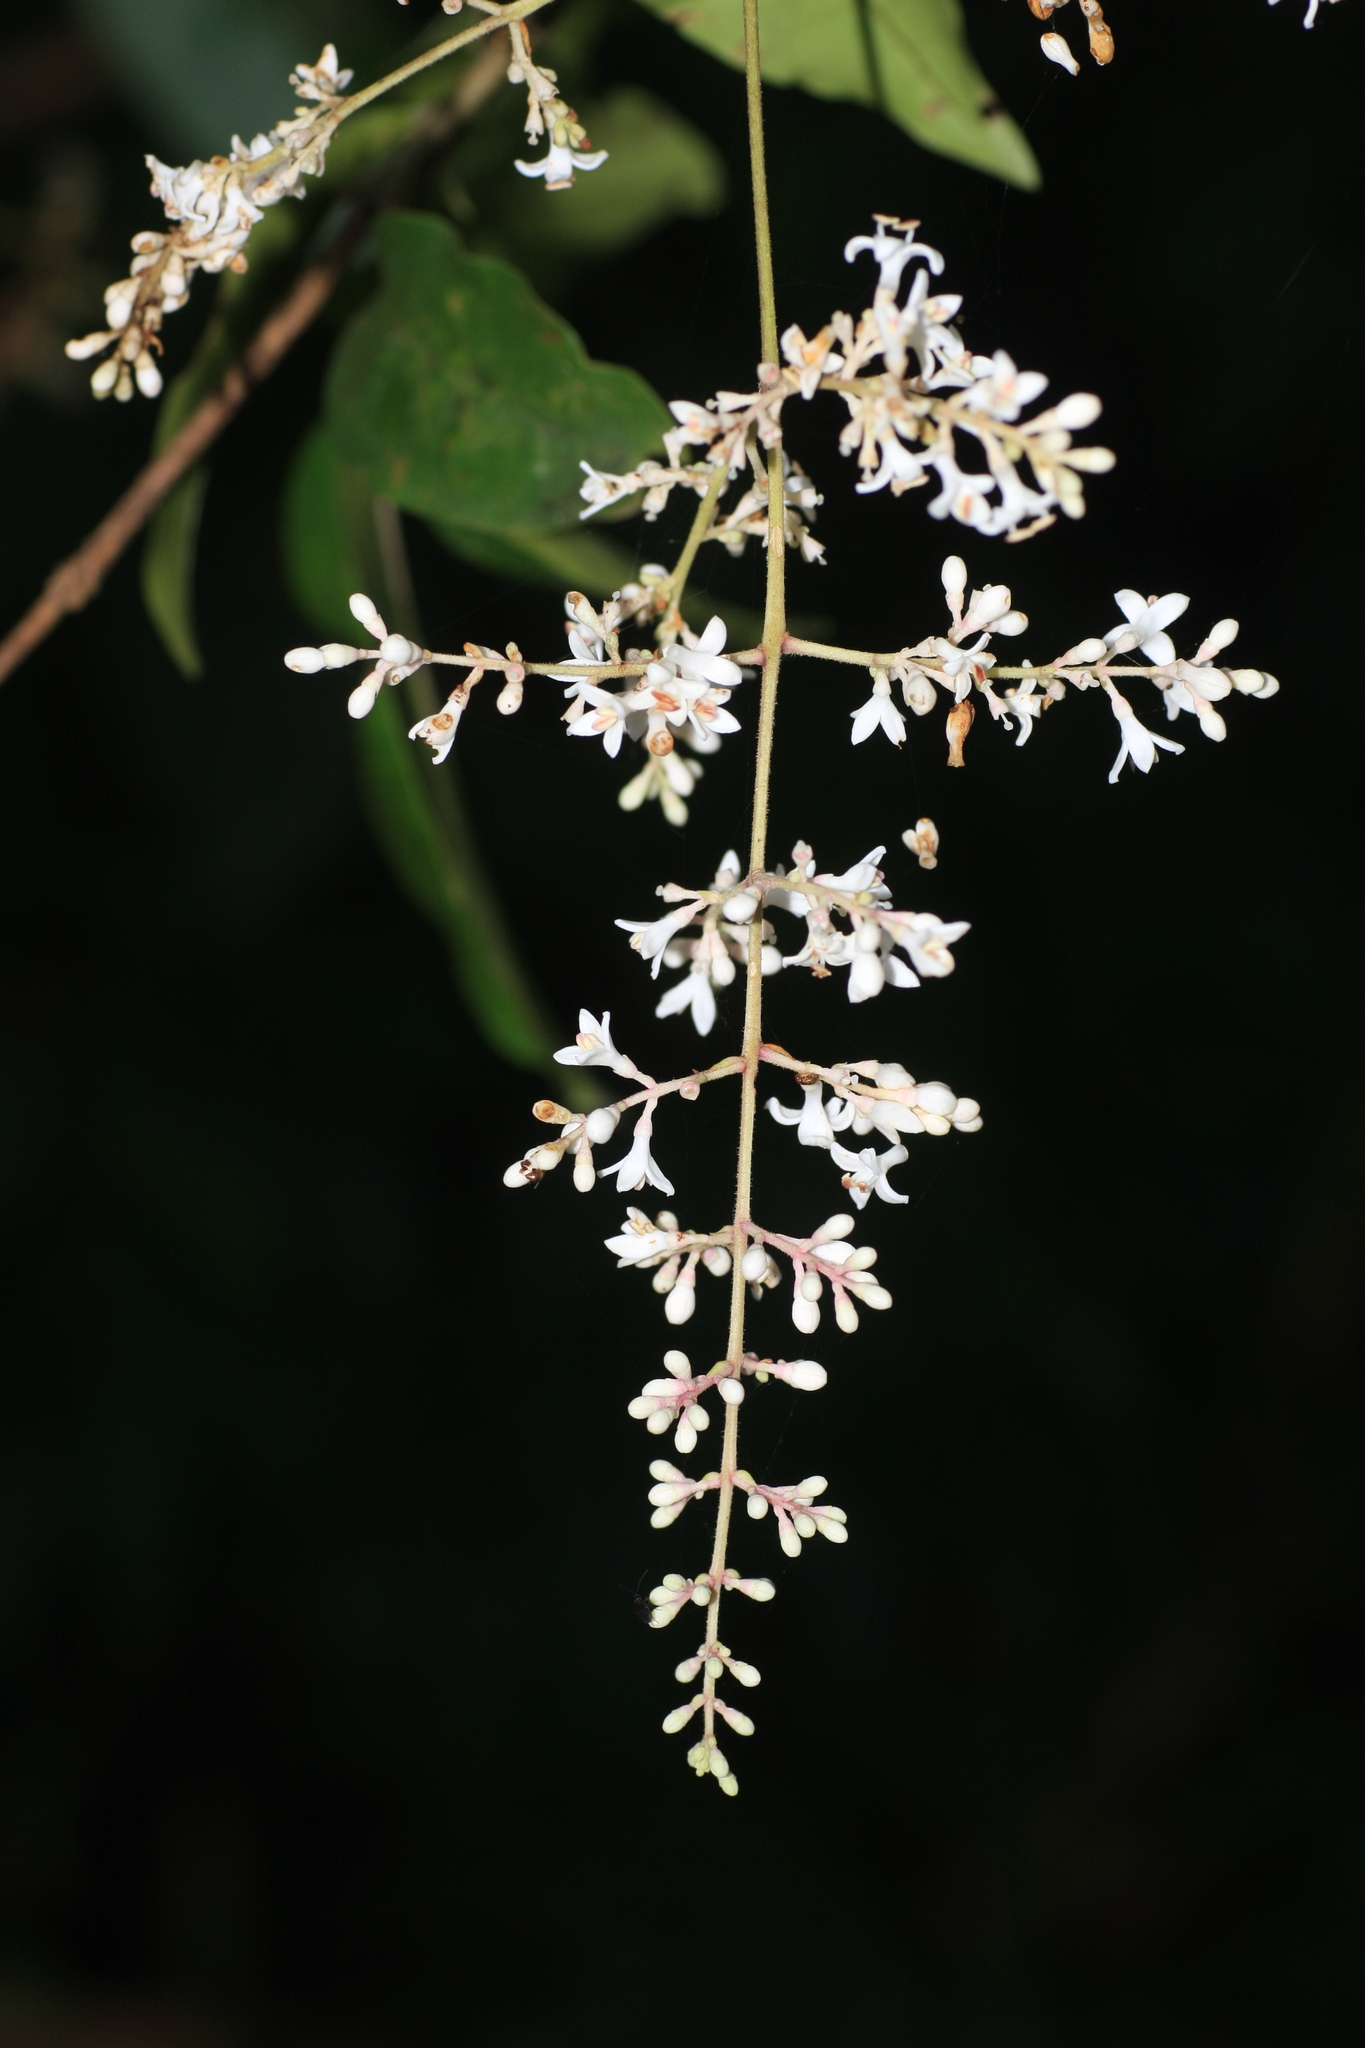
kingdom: Plantae
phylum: Tracheophyta
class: Magnoliopsida
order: Lamiales
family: Oleaceae
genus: Ligustrum
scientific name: Ligustrum robustum
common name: Tree privet
